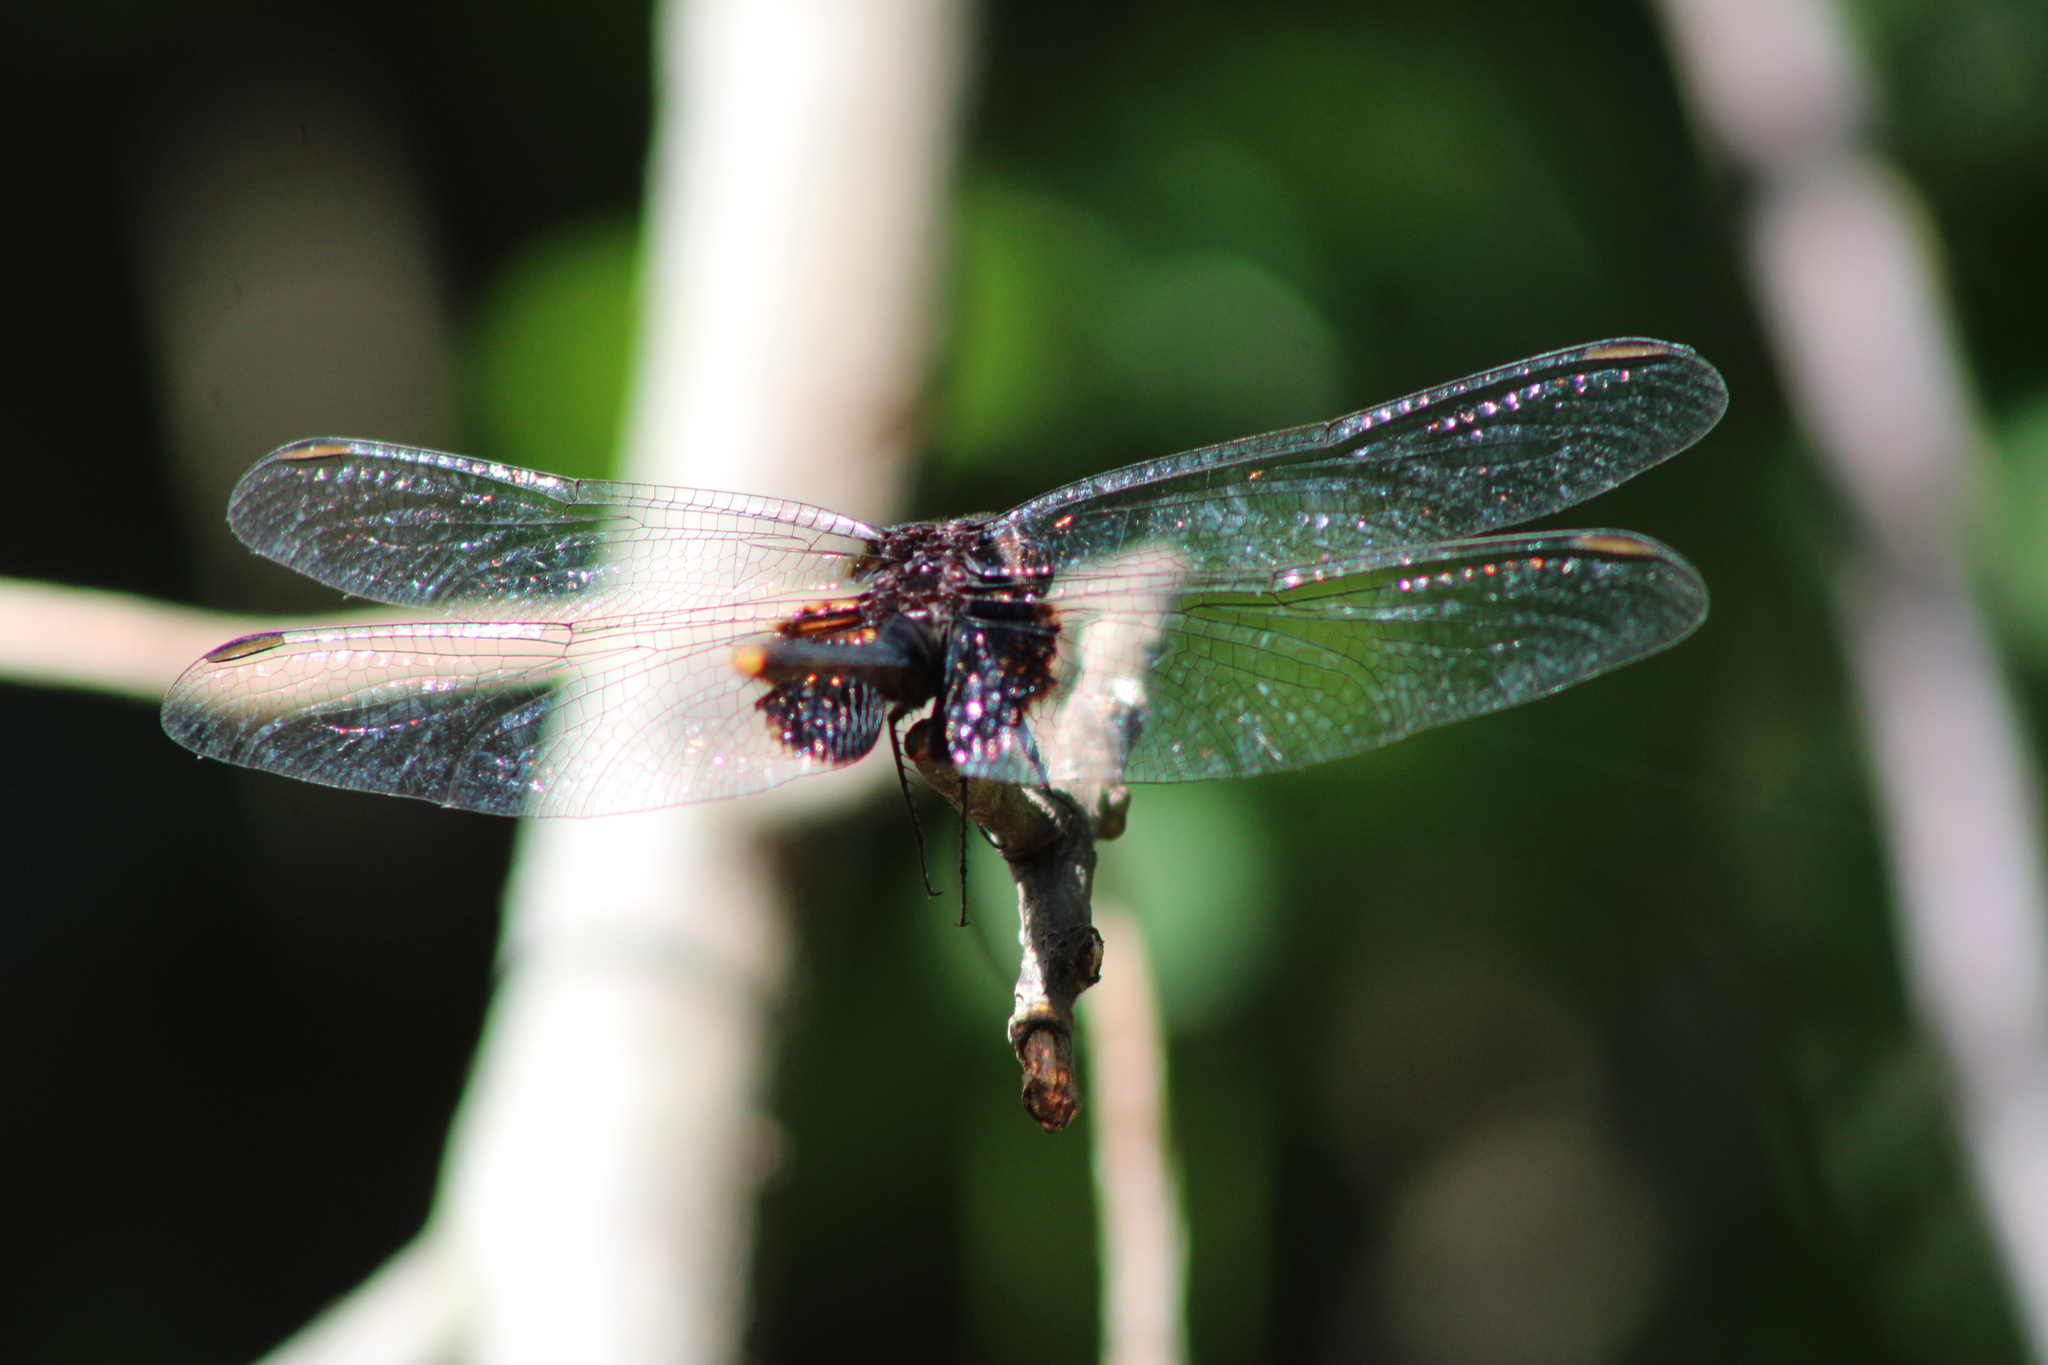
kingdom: Animalia
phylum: Arthropoda
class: Insecta
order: Odonata
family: Libellulidae
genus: Erythemis
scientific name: Erythemis attala
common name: Black pondhawk
